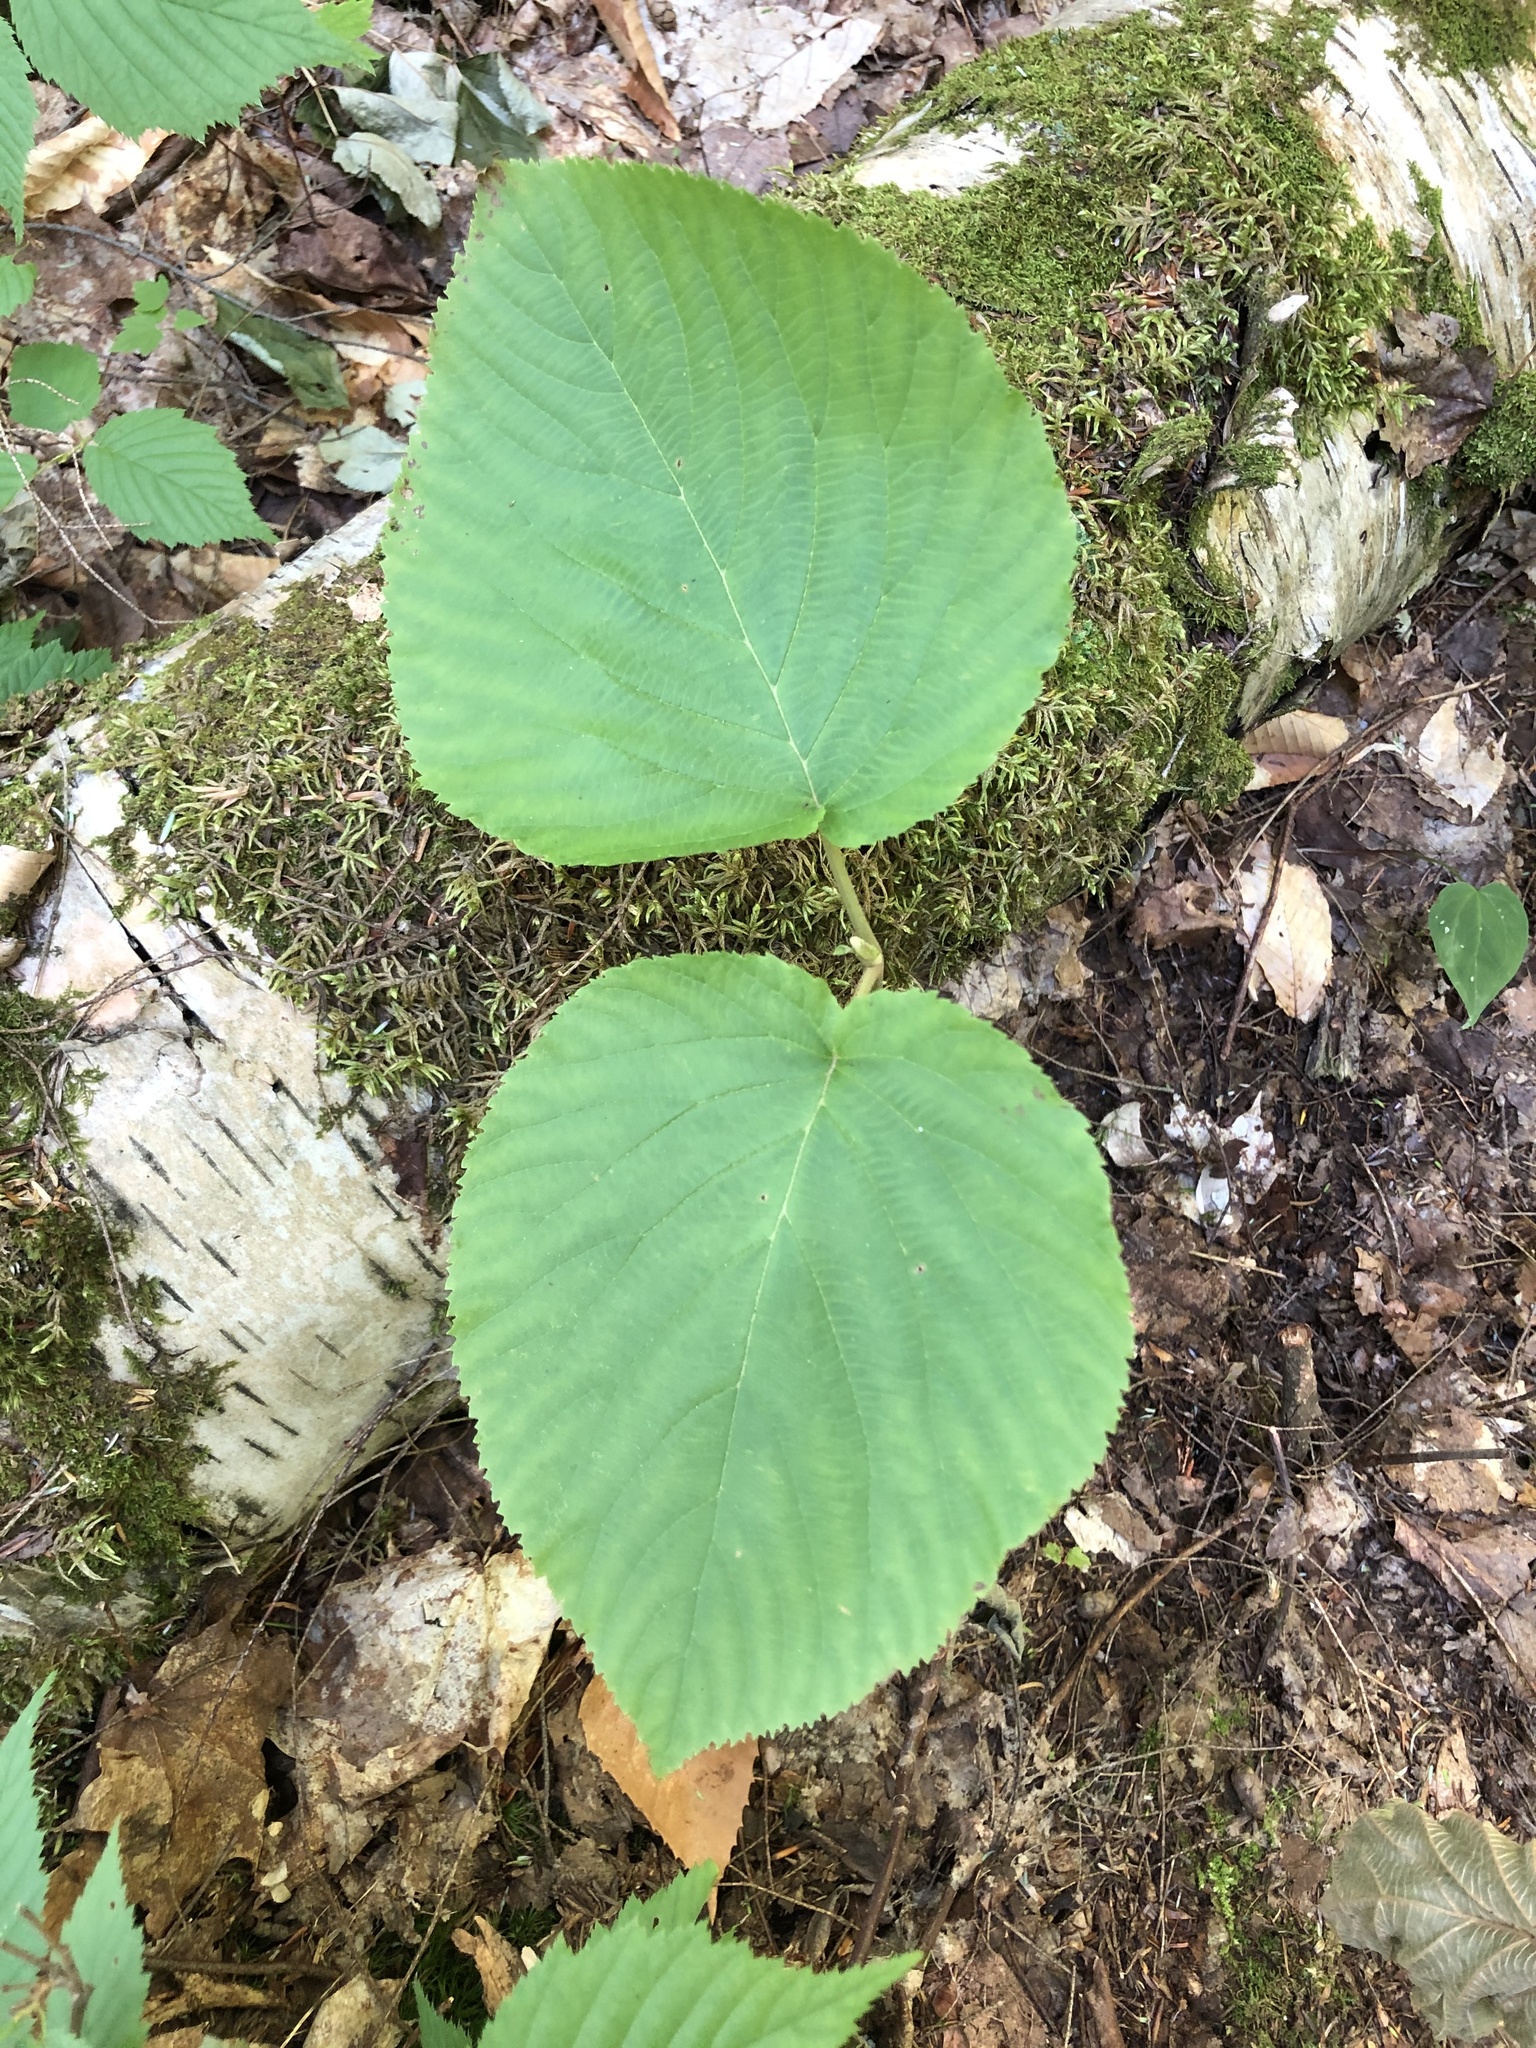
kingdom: Plantae
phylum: Tracheophyta
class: Magnoliopsida
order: Dipsacales
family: Viburnaceae
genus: Viburnum
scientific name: Viburnum lantanoides
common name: Hobblebush
